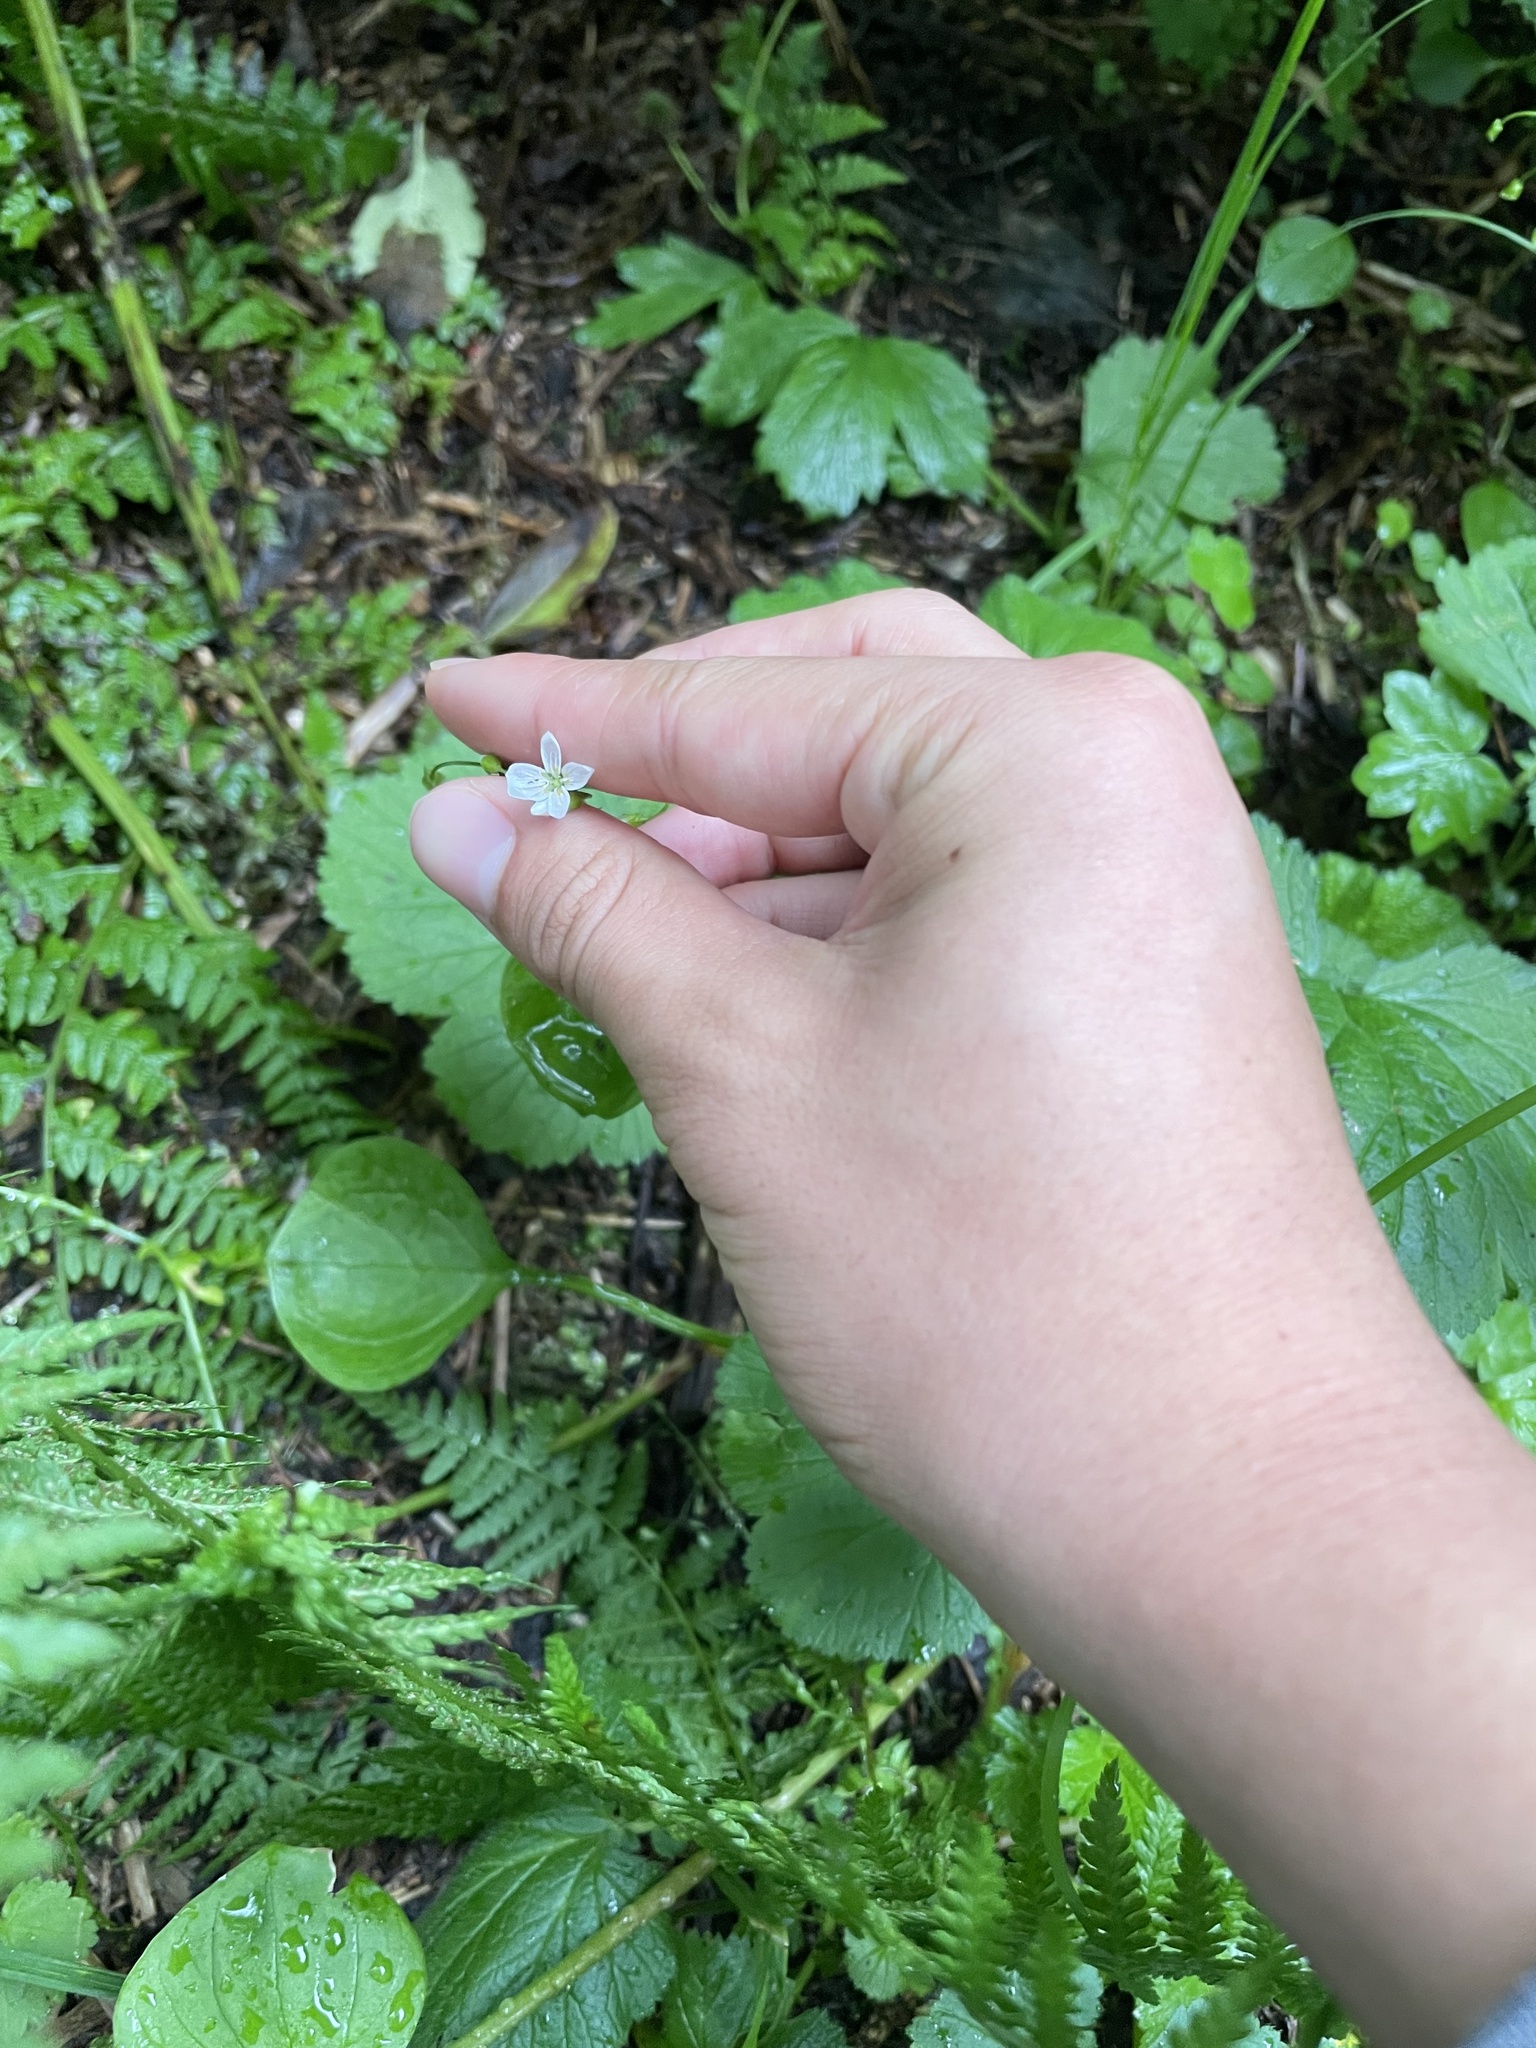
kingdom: Plantae
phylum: Tracheophyta
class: Magnoliopsida
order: Caryophyllales
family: Montiaceae
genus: Claytonia
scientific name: Claytonia sibirica
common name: Pink purslane
